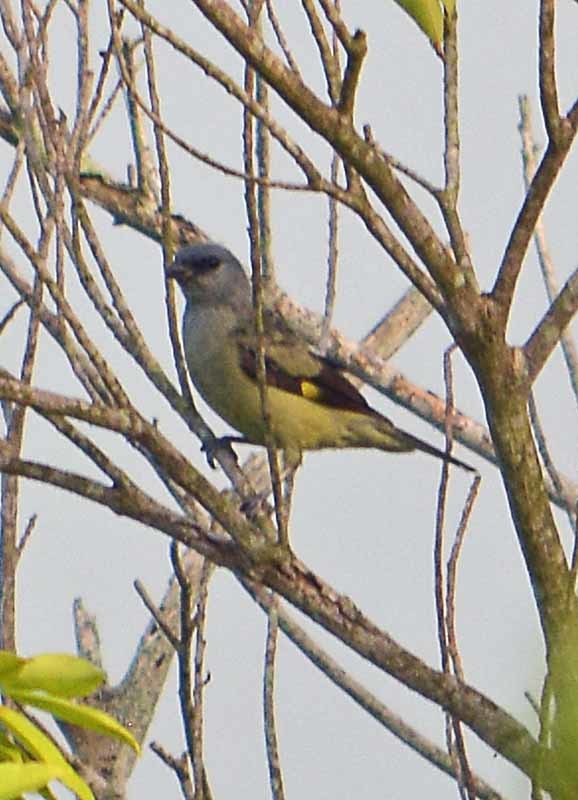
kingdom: Animalia
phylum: Chordata
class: Aves
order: Passeriformes
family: Thraupidae
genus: Thraupis
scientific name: Thraupis abbas
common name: Yellow-winged tanager
